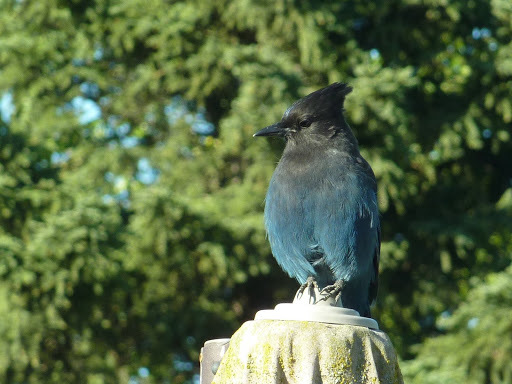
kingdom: Animalia
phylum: Chordata
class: Aves
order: Passeriformes
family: Corvidae
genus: Cyanocitta
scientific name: Cyanocitta stelleri
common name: Steller's jay
